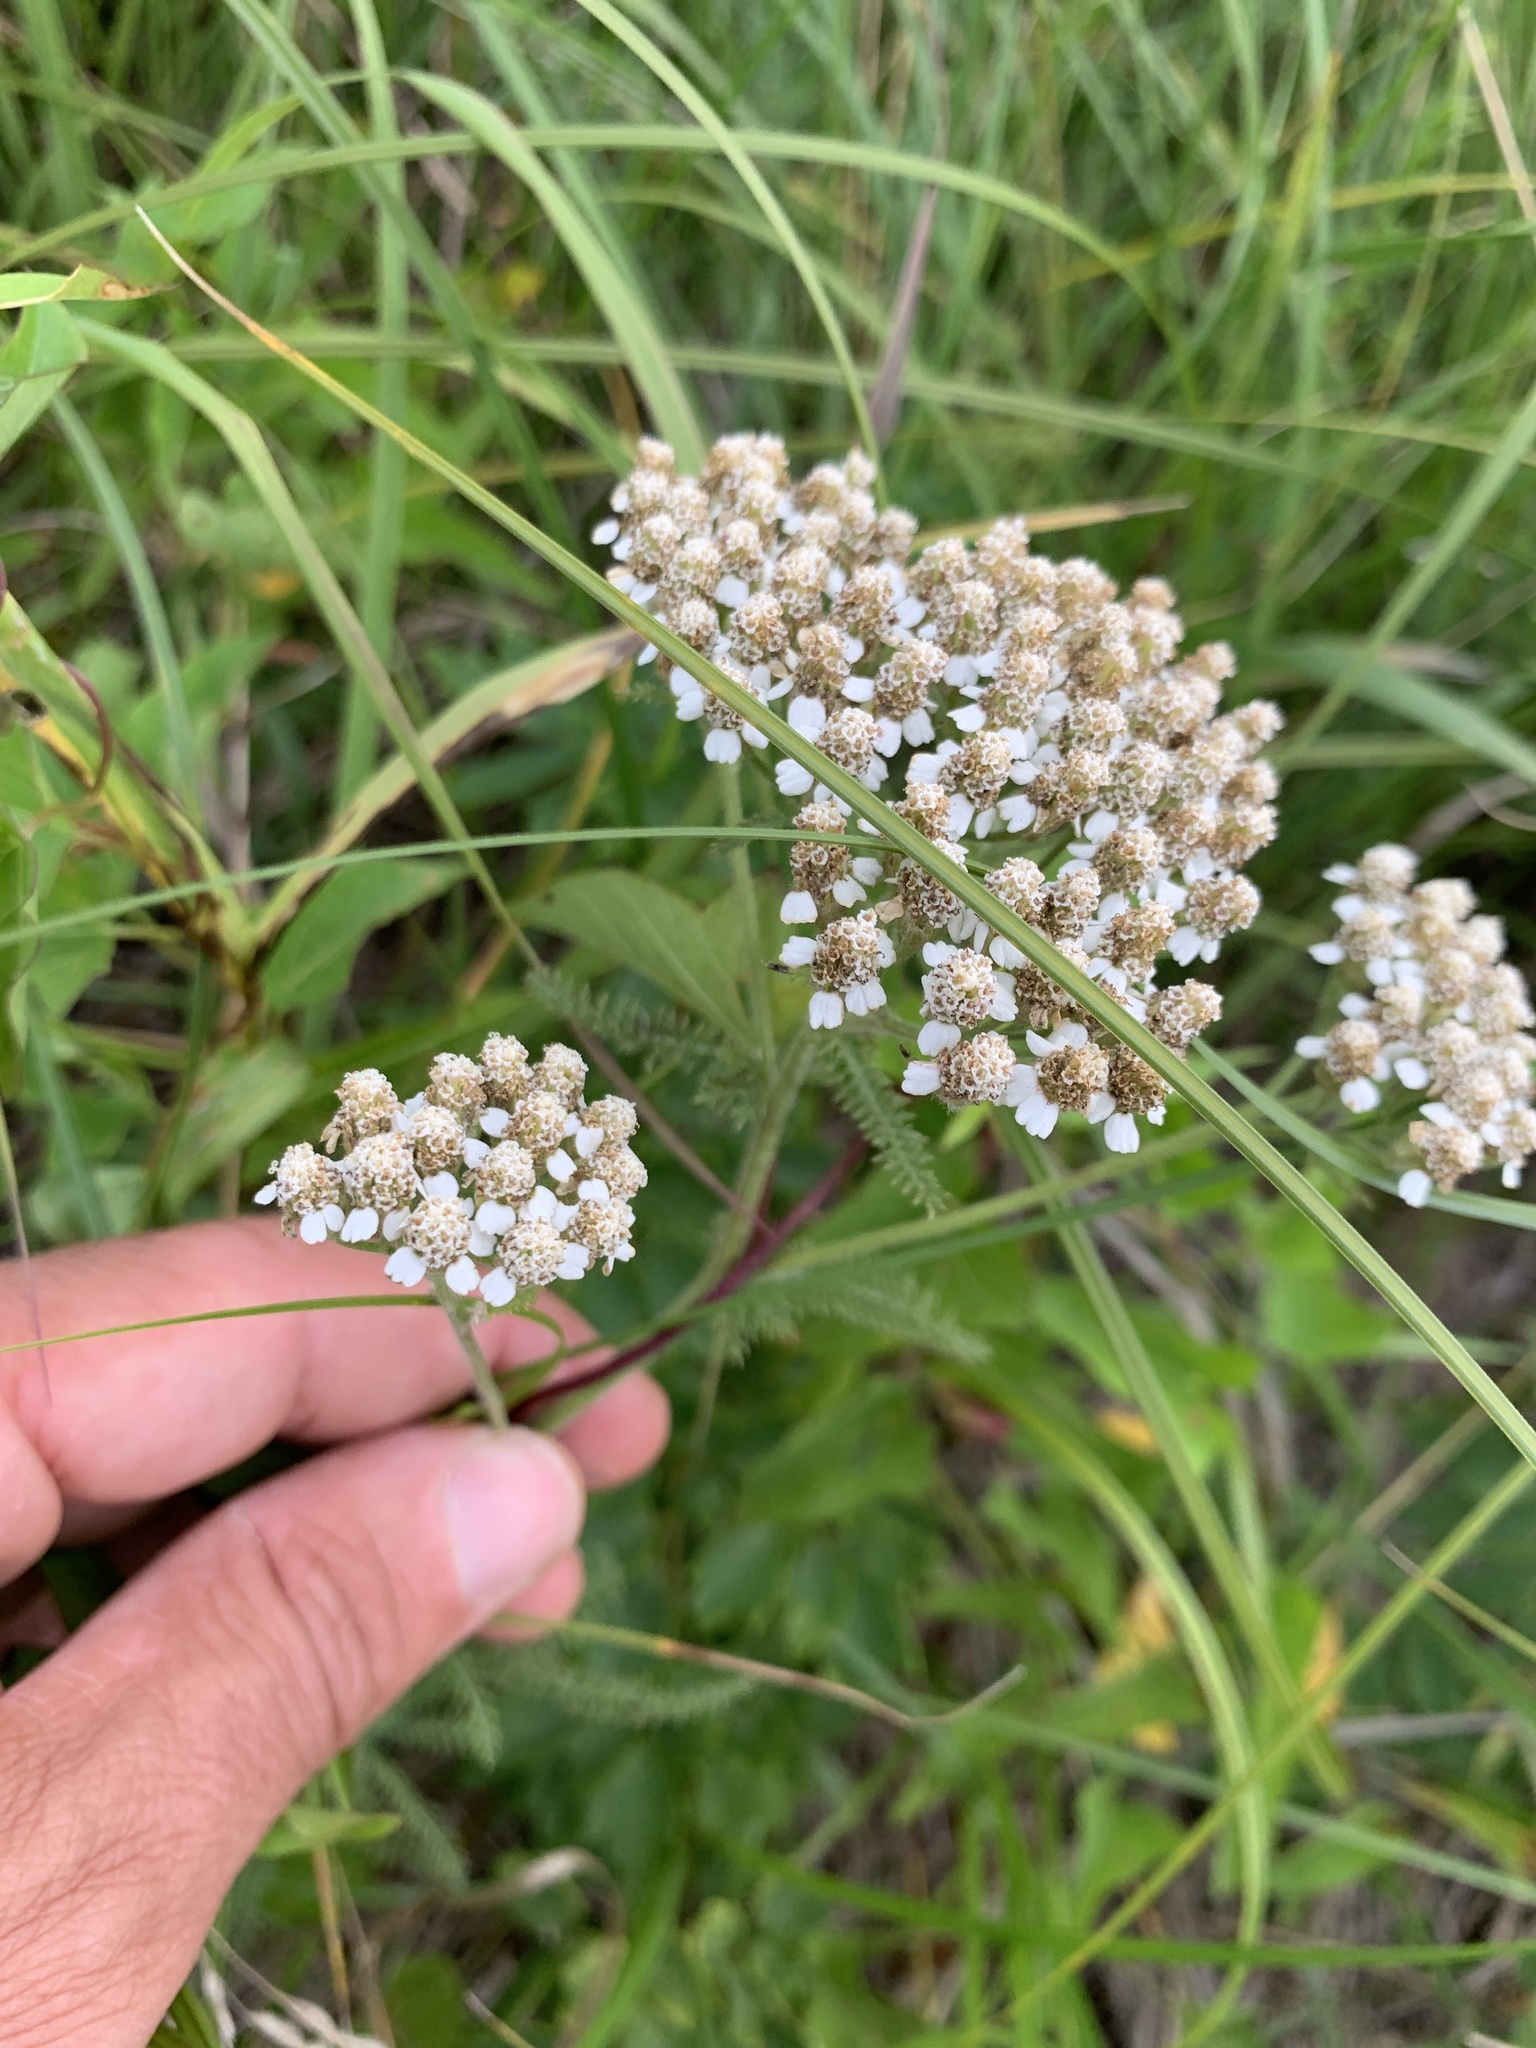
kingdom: Plantae
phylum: Tracheophyta
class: Magnoliopsida
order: Asterales
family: Asteraceae
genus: Achillea
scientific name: Achillea millefolium
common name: Yarrow
